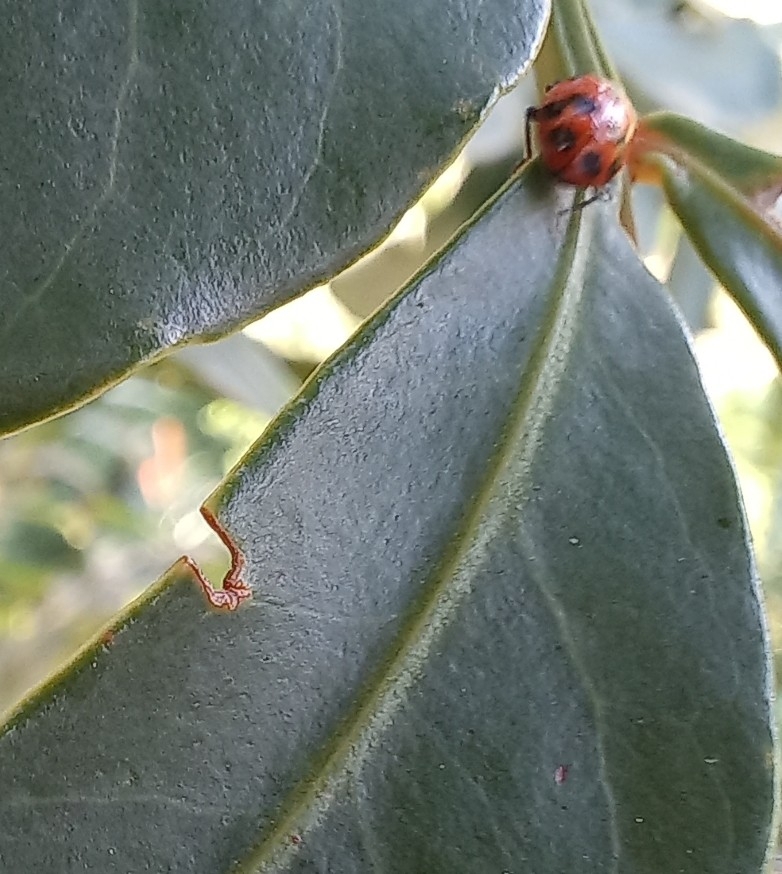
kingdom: Animalia
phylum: Arthropoda
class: Insecta
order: Coleoptera
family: Coccinellidae
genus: Hippodamia
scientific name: Hippodamia variegata
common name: Ladybird beetle
